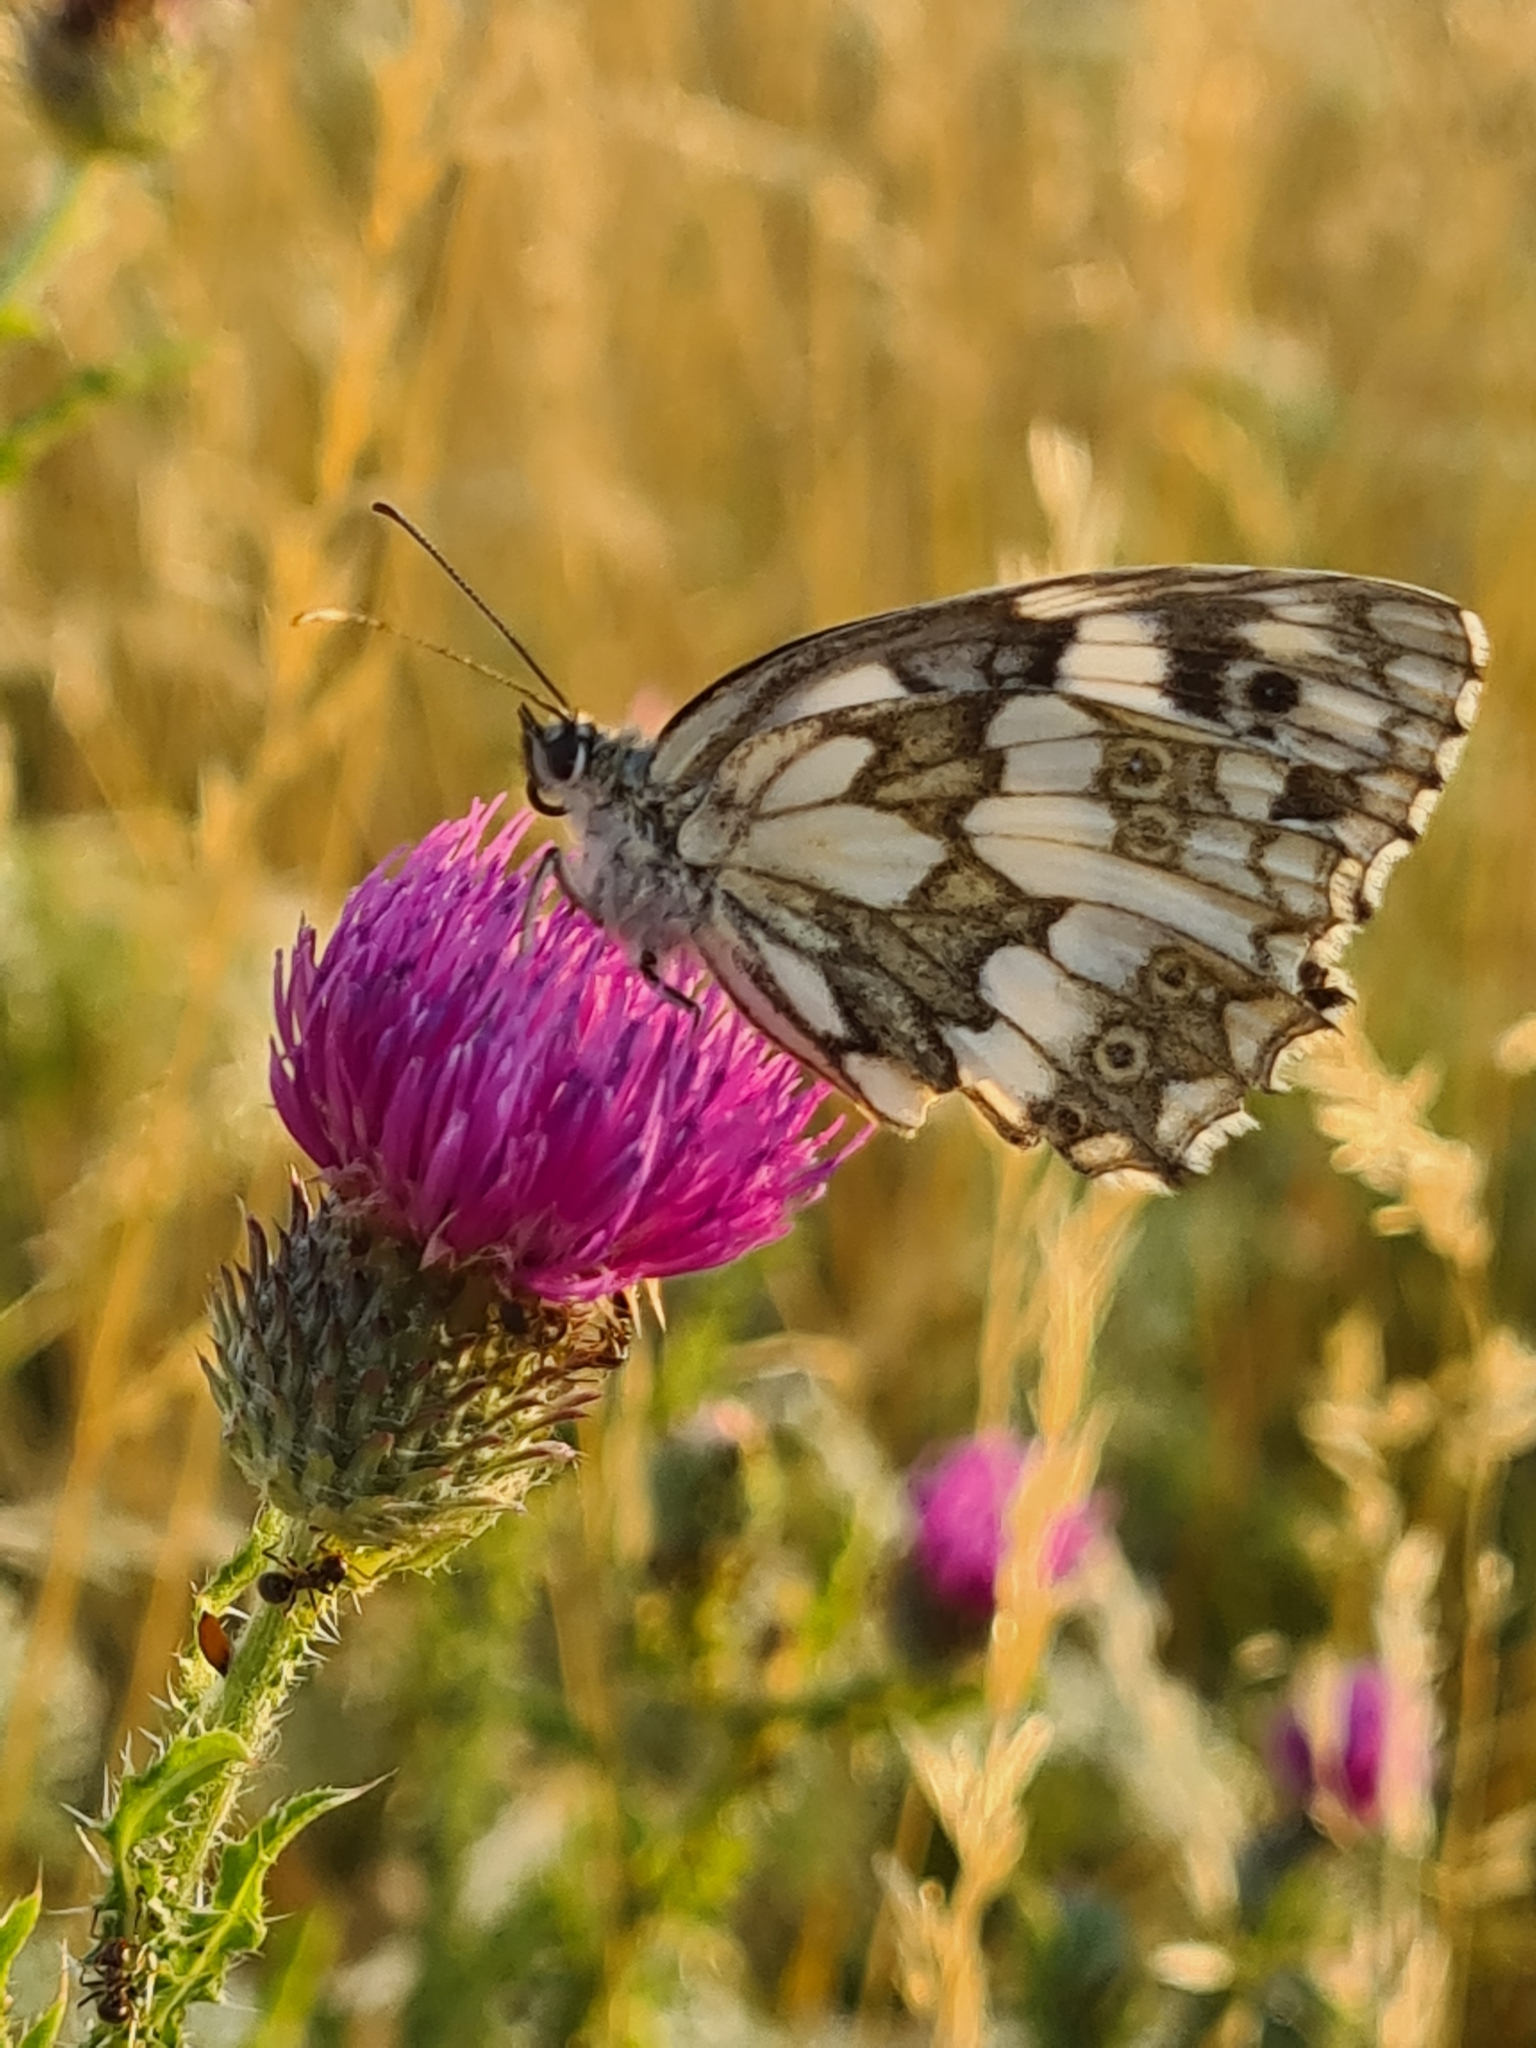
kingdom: Animalia
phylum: Arthropoda
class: Insecta
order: Lepidoptera
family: Nymphalidae
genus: Melanargia
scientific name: Melanargia galathea
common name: Marbled white
